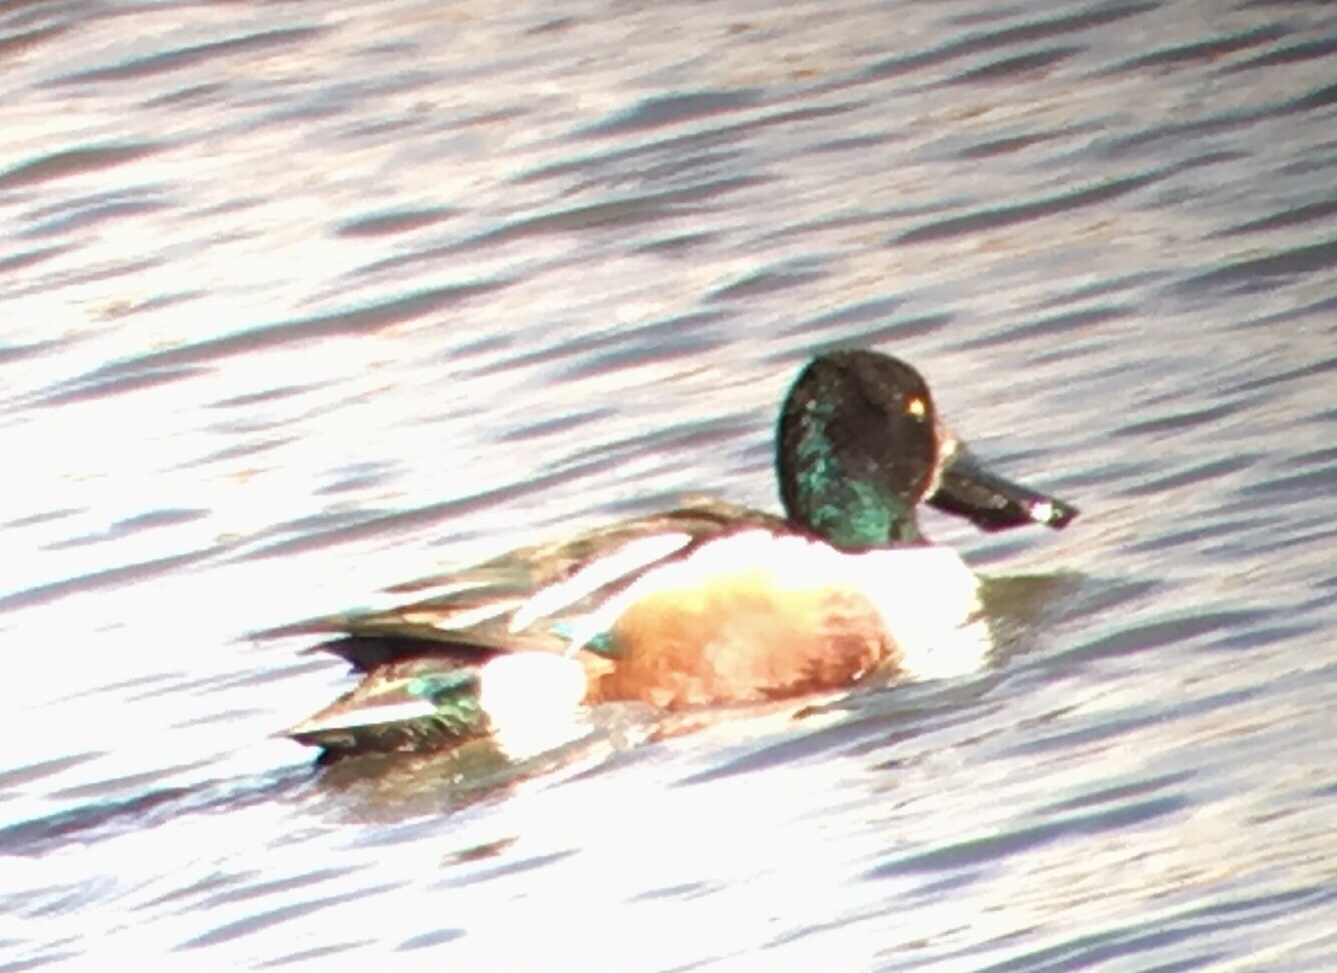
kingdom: Animalia
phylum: Chordata
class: Aves
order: Anseriformes
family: Anatidae
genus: Spatula
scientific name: Spatula clypeata
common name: Northern shoveler
